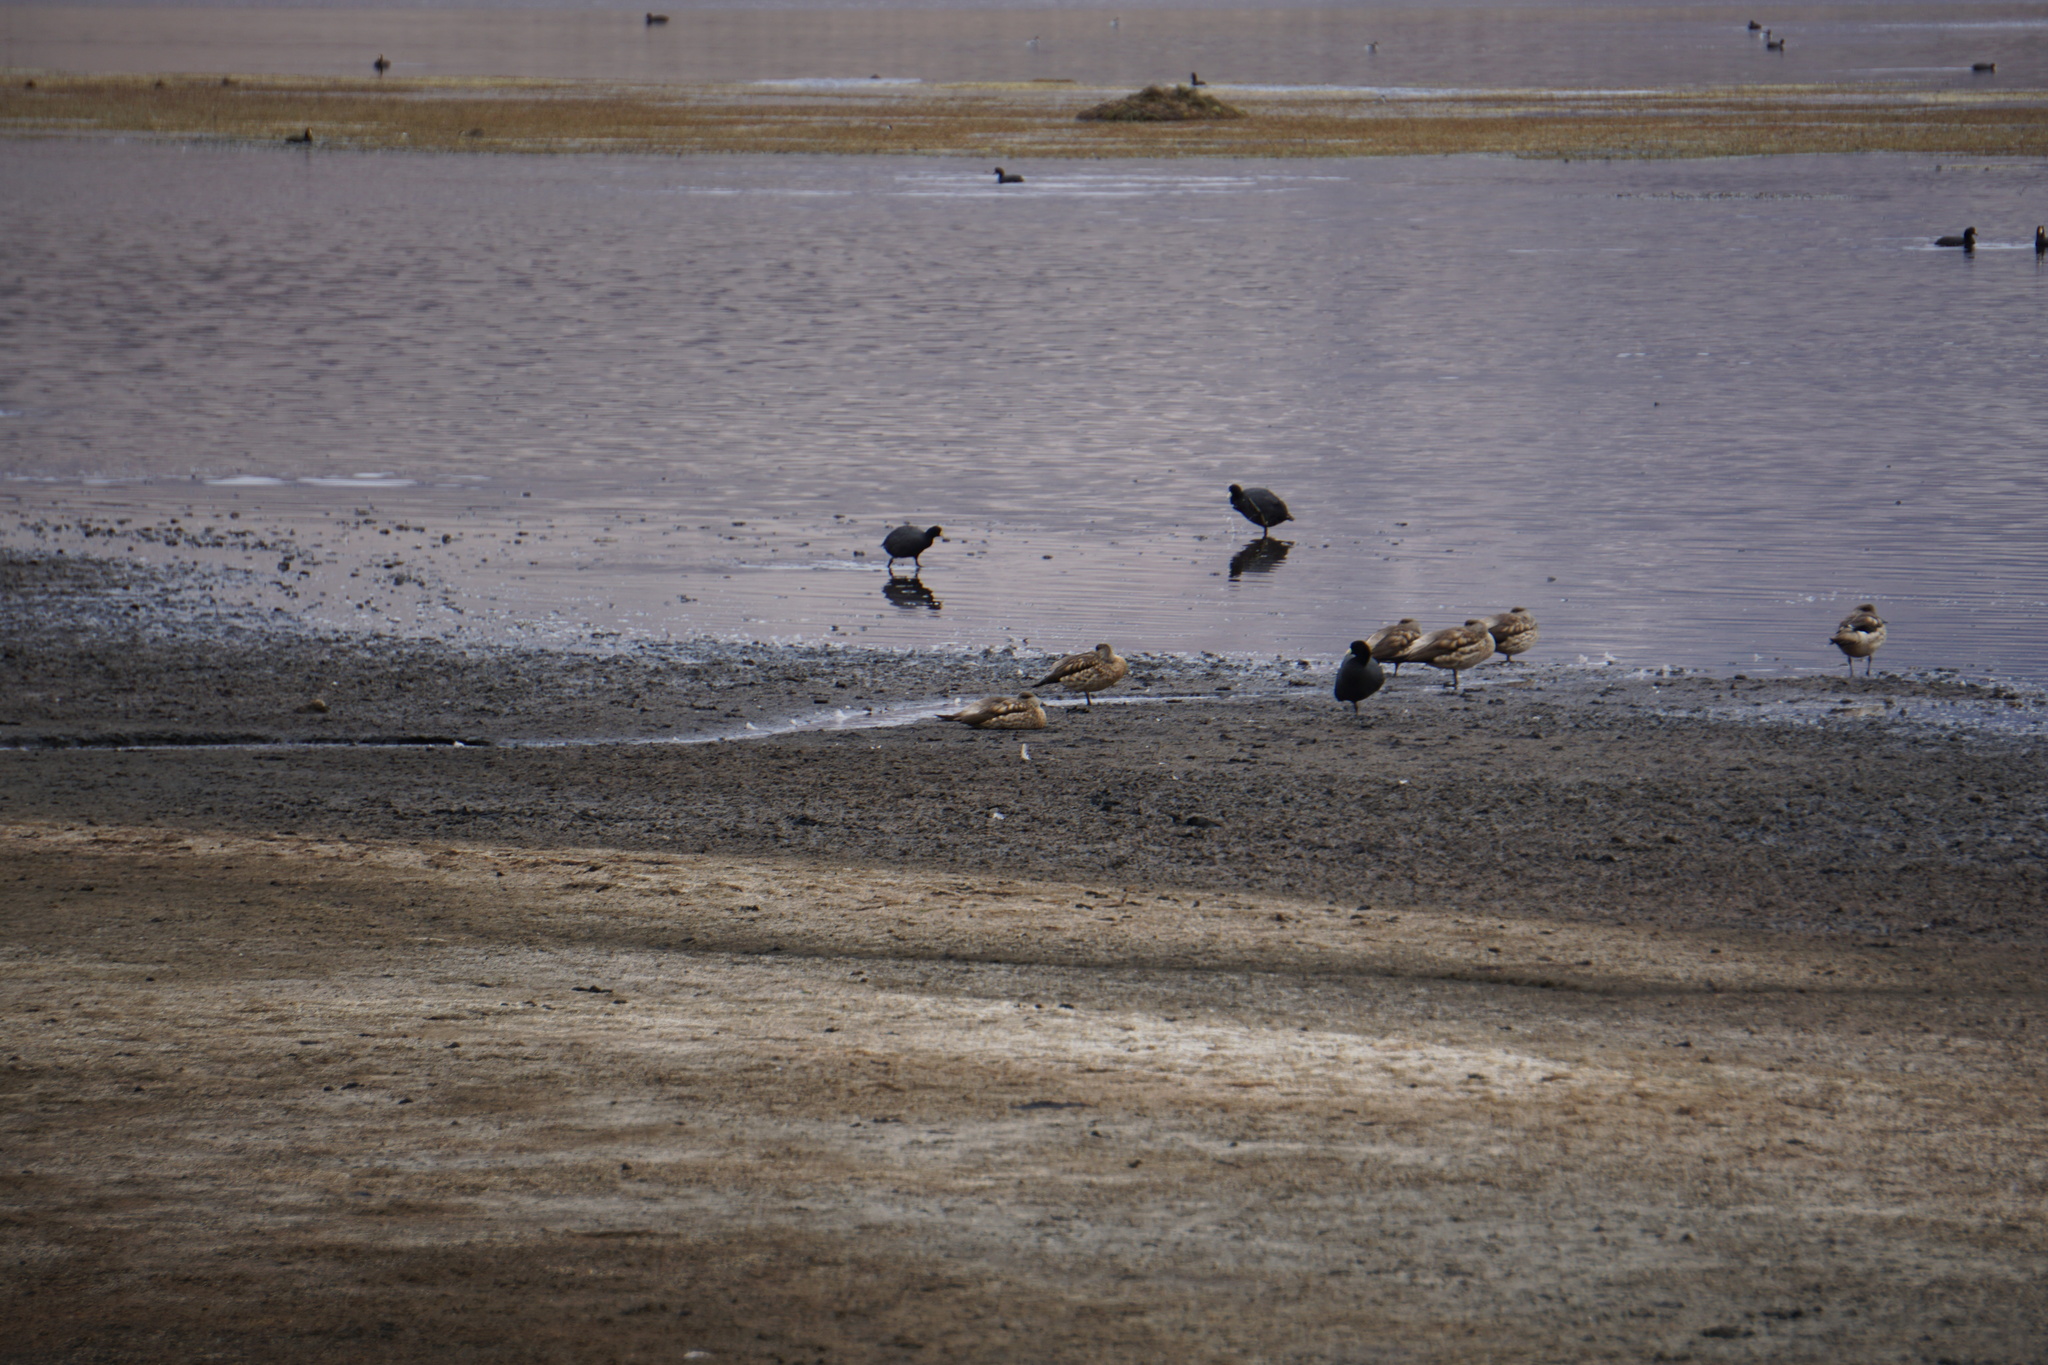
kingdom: Animalia
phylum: Chordata
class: Aves
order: Anseriformes
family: Anatidae
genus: Lophonetta
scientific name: Lophonetta specularioides
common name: Crested duck
